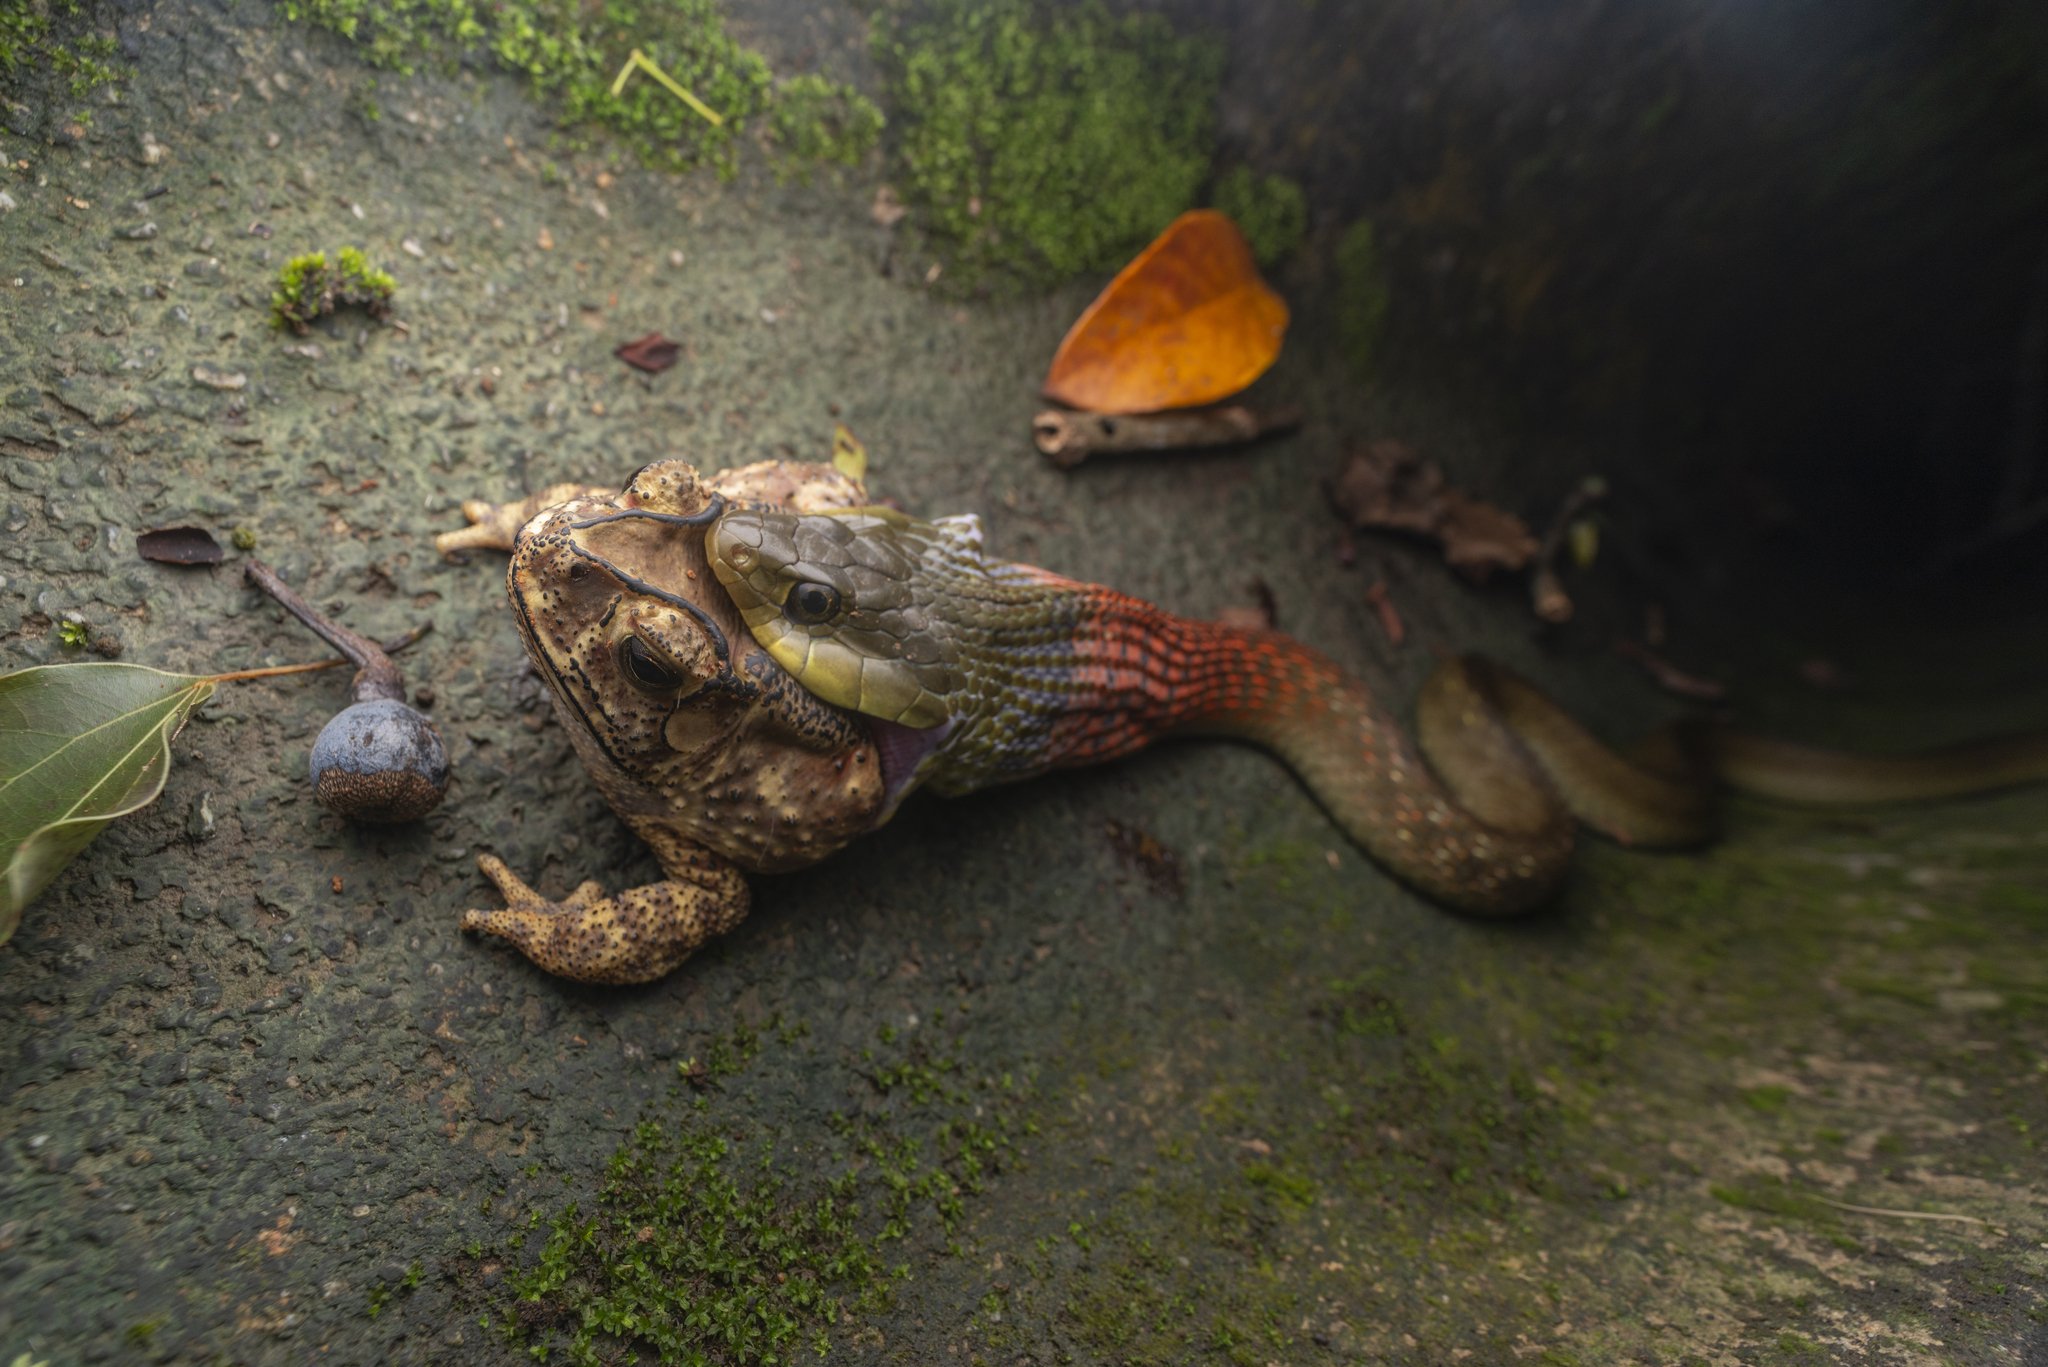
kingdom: Animalia
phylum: Chordata
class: Squamata
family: Colubridae
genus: Rhabdophis
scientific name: Rhabdophis helleri
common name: Heller’s red-necked keelback
